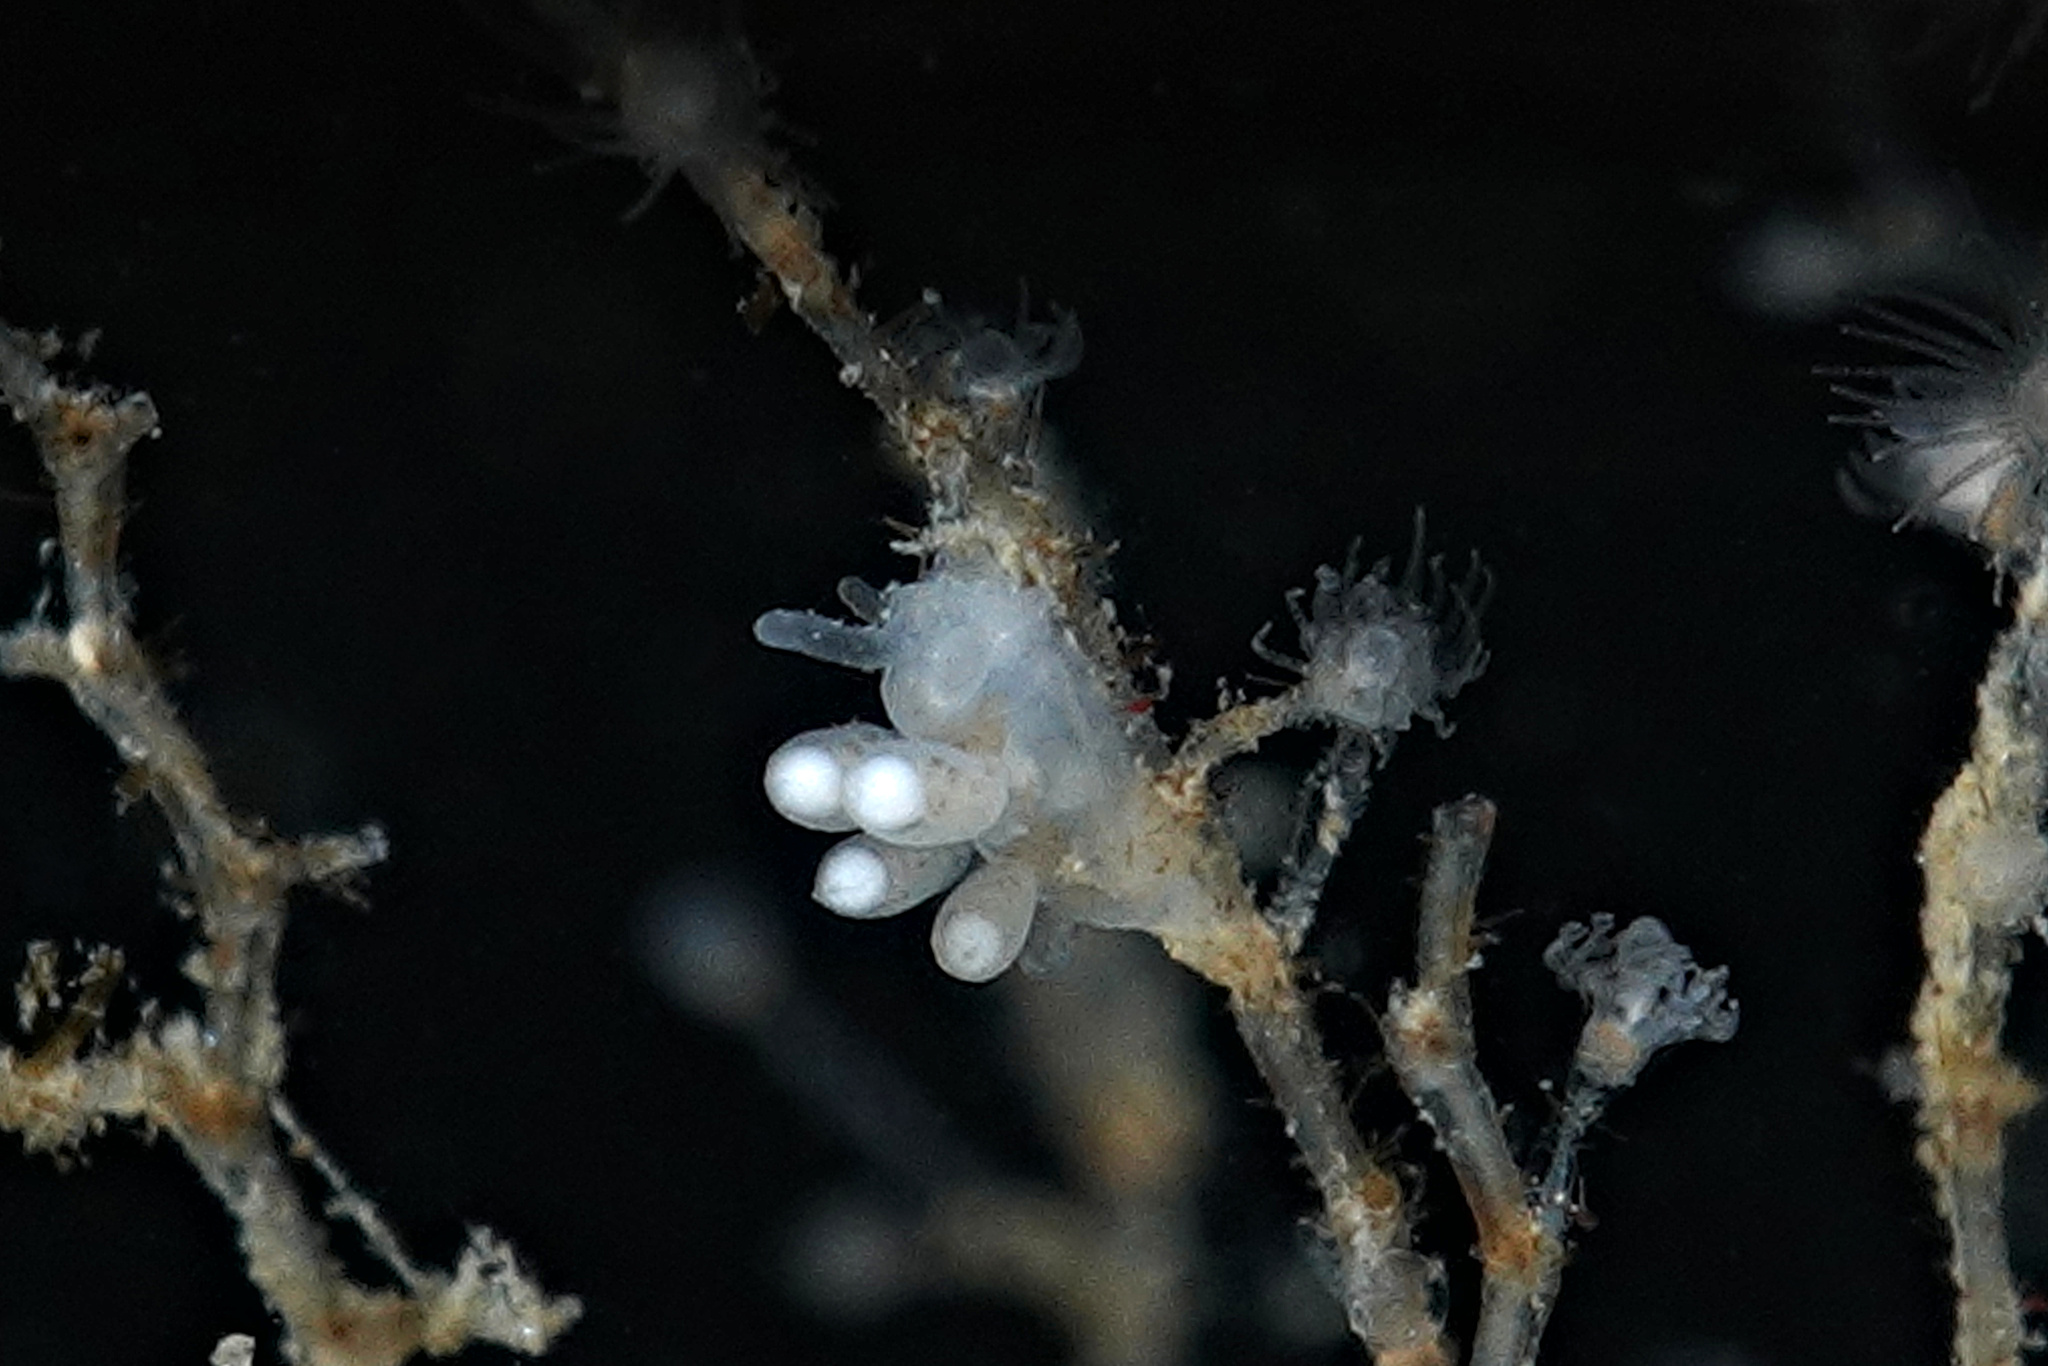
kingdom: Animalia
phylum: Mollusca
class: Gastropoda
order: Nudibranchia
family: Tergipedidae
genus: Tergipes
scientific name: Tergipes tergipes
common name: Johnston's balloon eolis
